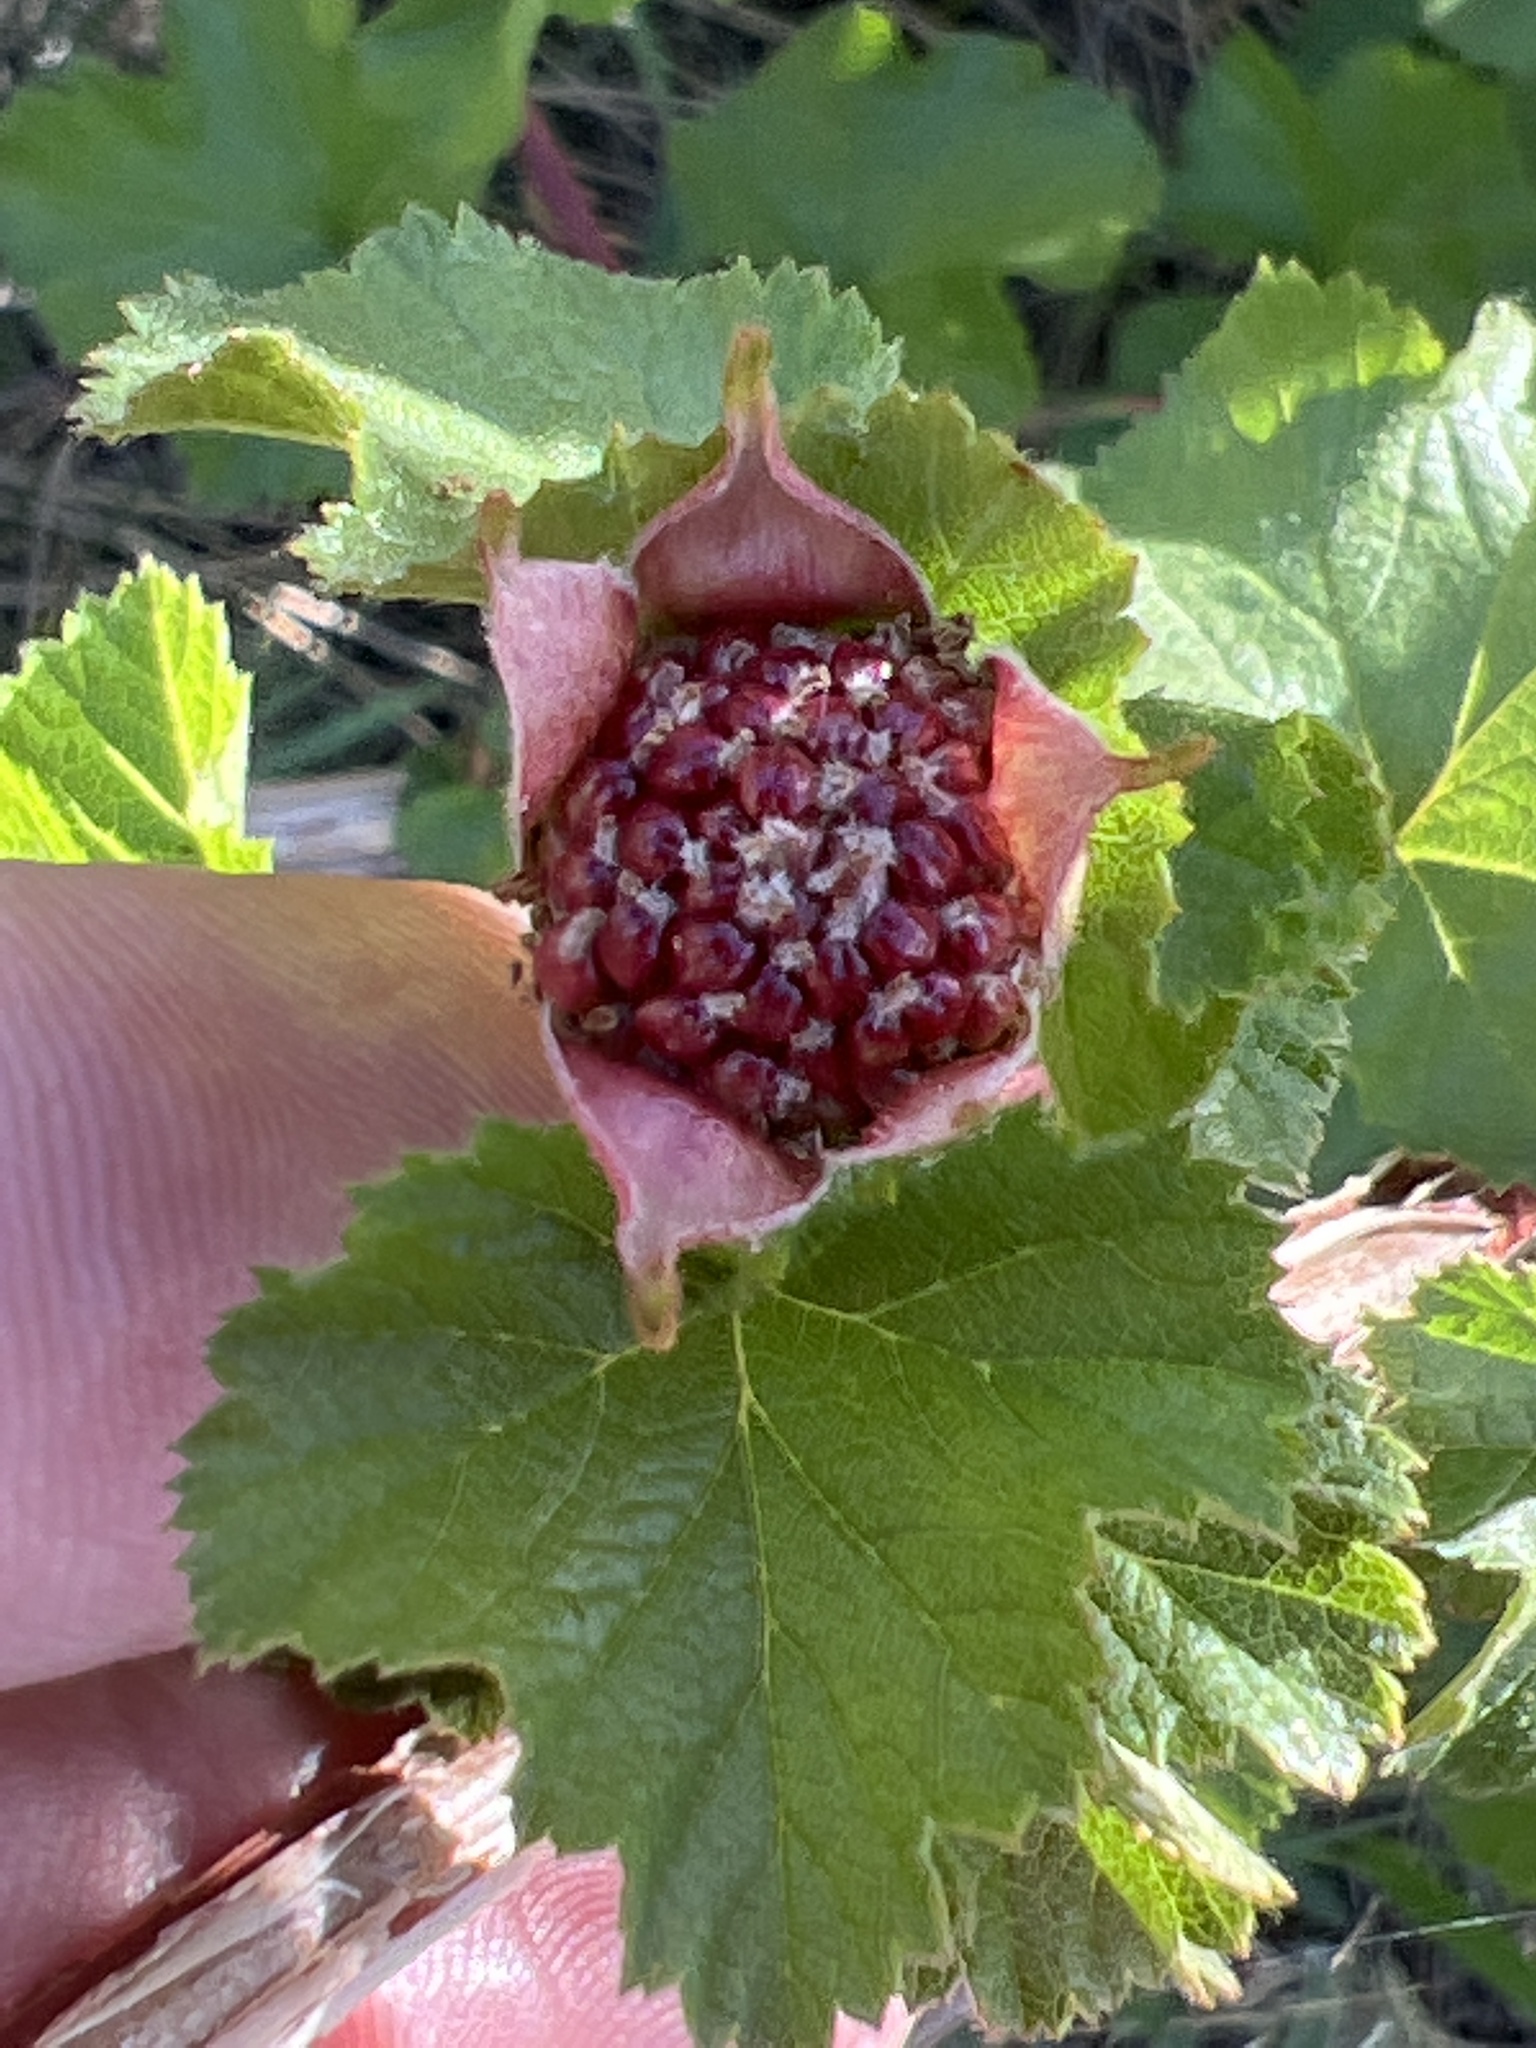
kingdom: Plantae
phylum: Tracheophyta
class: Magnoliopsida
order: Rosales
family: Rosaceae
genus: Rubus
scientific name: Rubus deliciosus
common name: Rocky mountain raspberry
